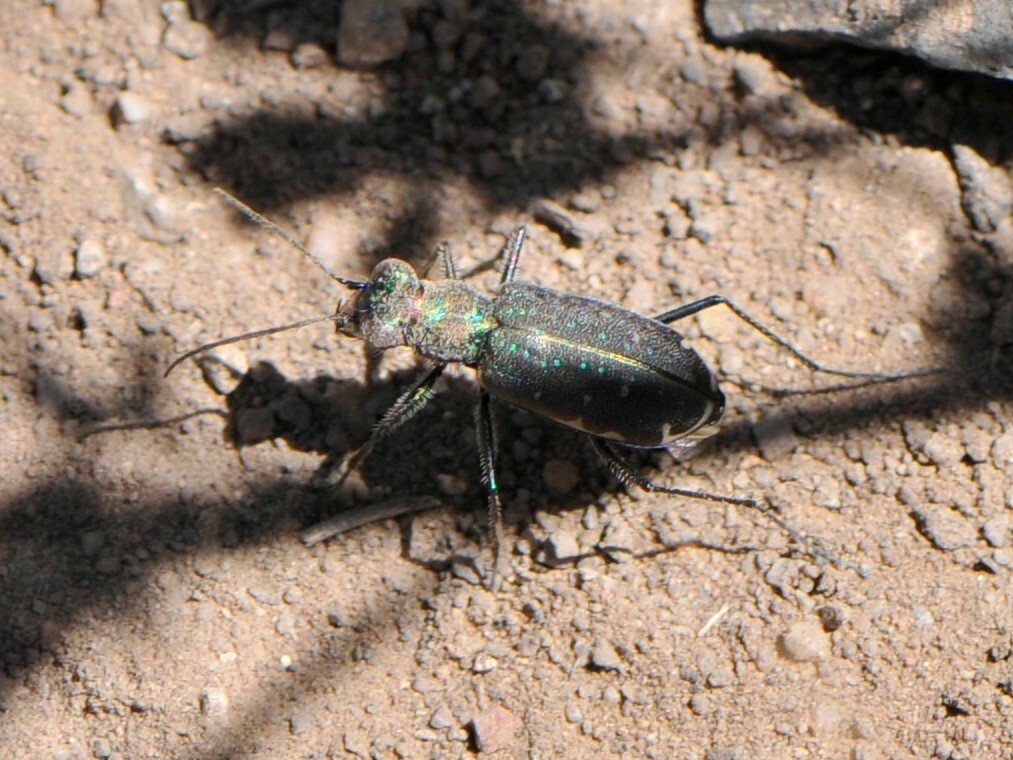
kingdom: Animalia
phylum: Arthropoda
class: Insecta
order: Coleoptera
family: Carabidae
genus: Cicindela
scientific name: Cicindela punctulata
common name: Punctured tiger beetle
